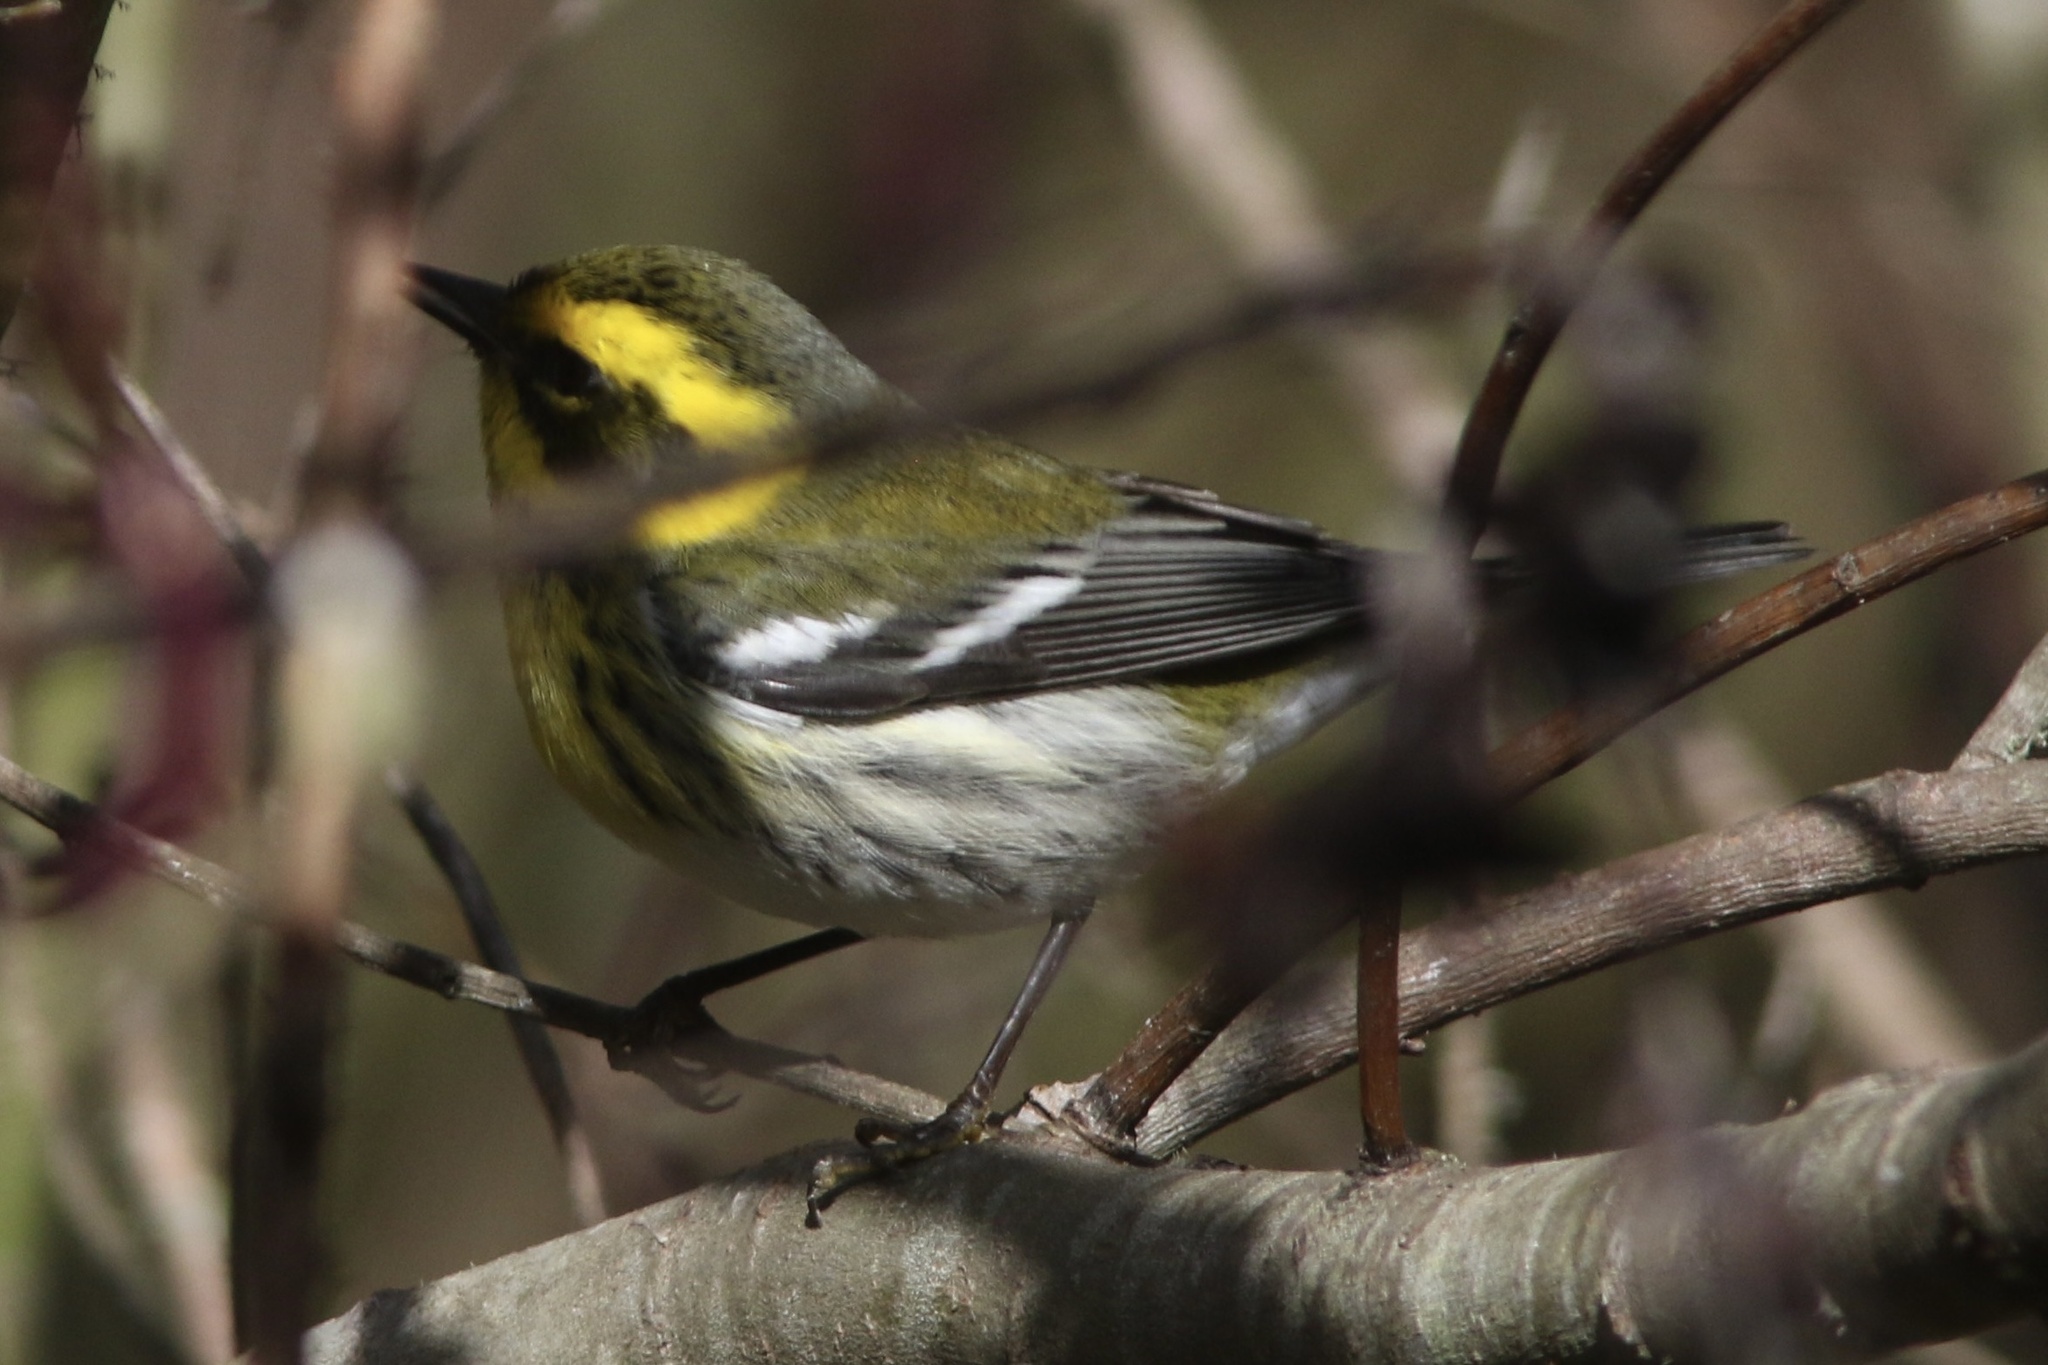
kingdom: Animalia
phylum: Chordata
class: Aves
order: Passeriformes
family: Parulidae
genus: Setophaga
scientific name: Setophaga townsendi
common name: Townsend's warbler
